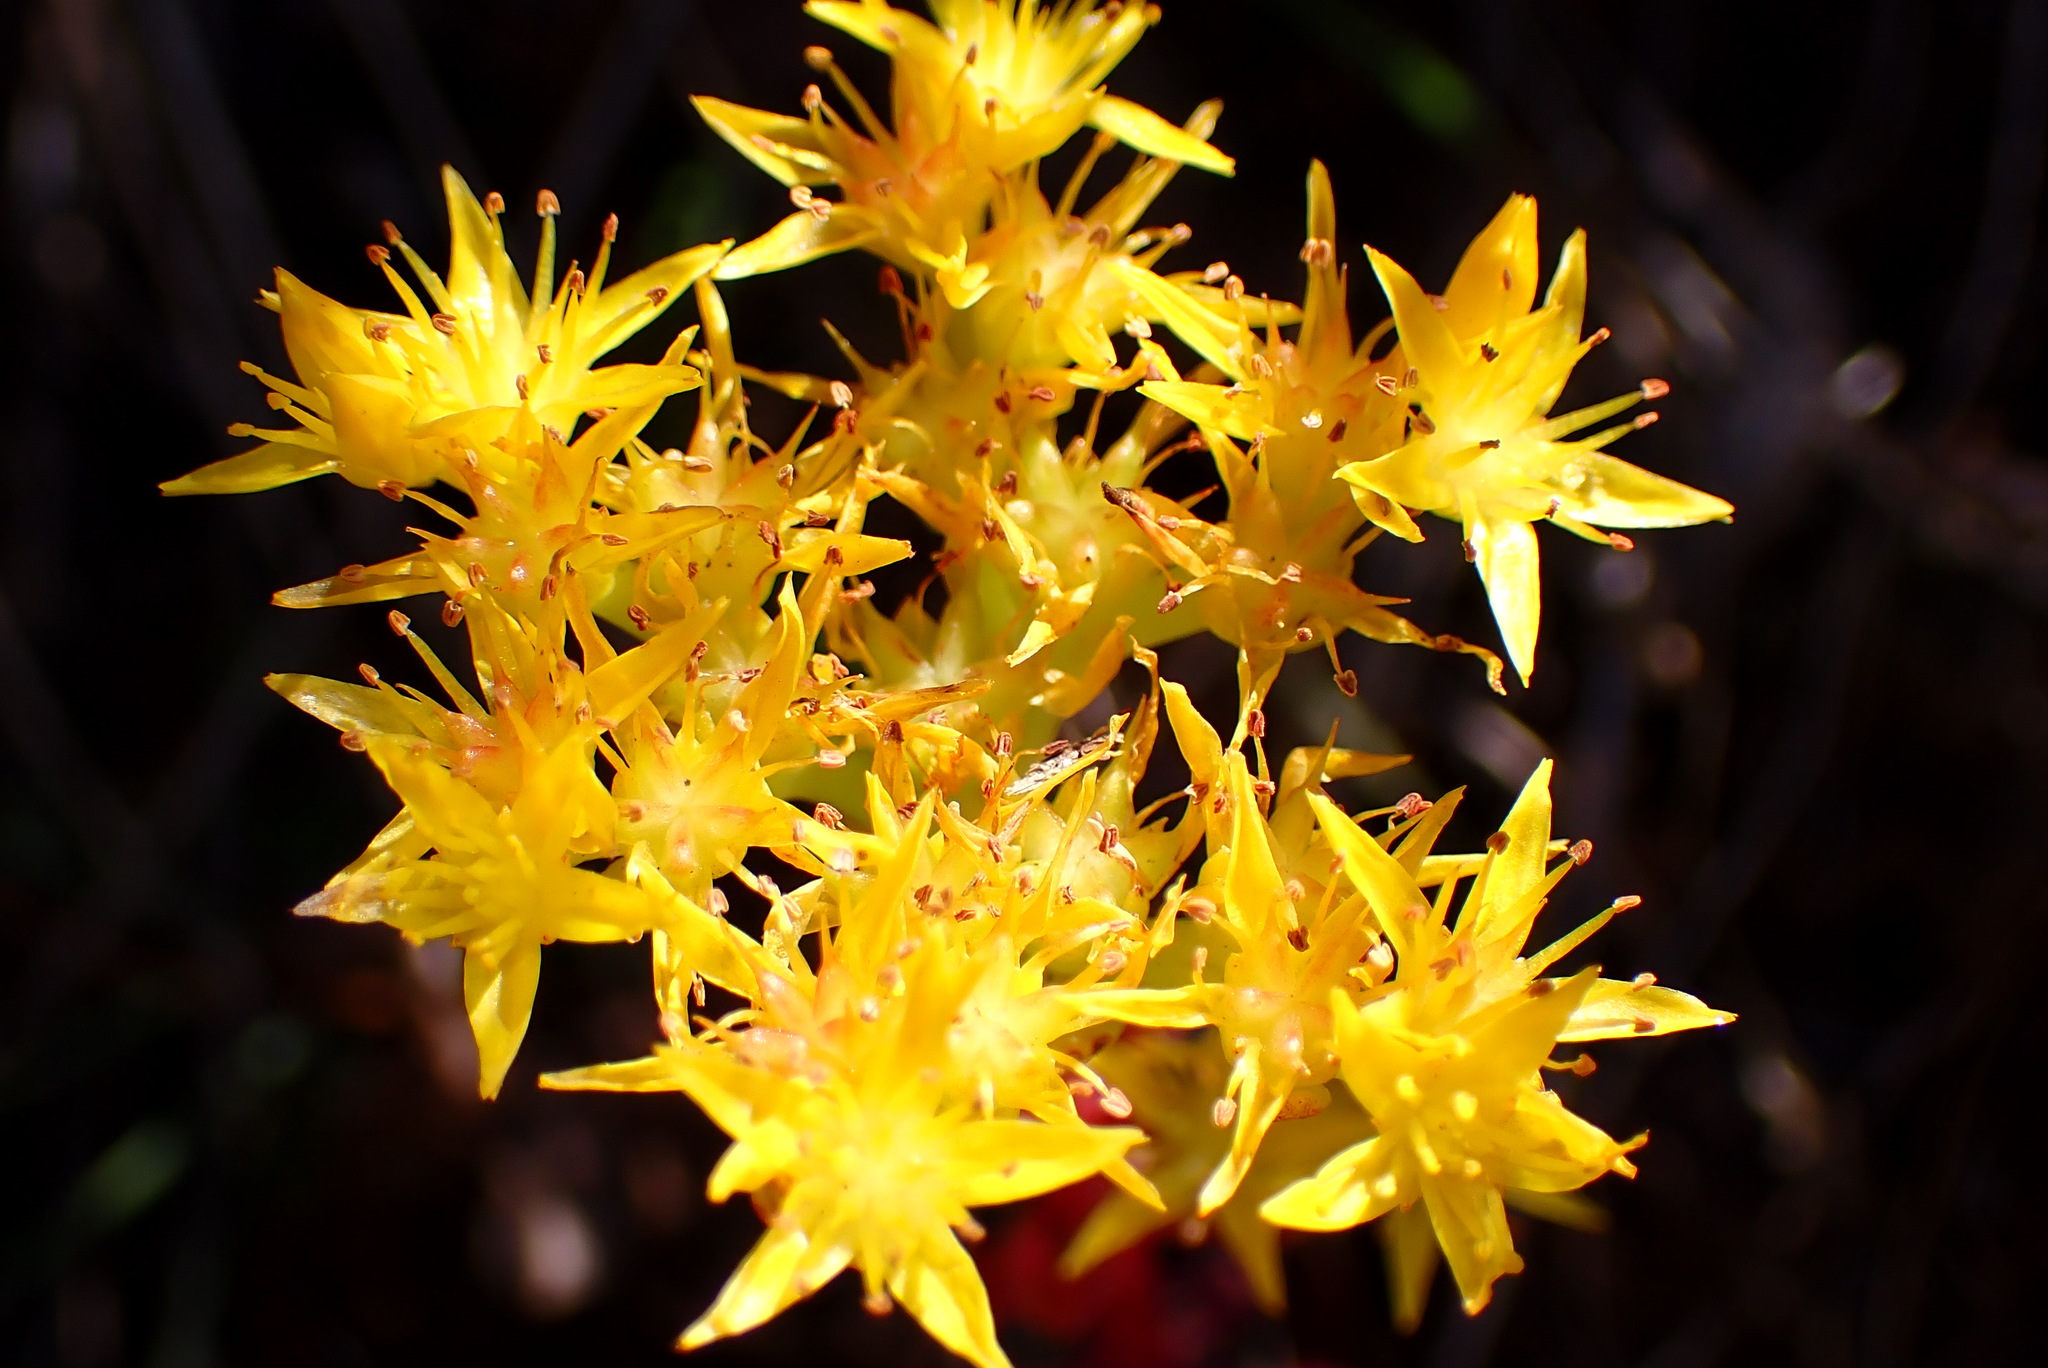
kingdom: Plantae
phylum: Tracheophyta
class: Magnoliopsida
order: Saxifragales
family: Crassulaceae
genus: Sedum
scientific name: Sedum spathulifolium
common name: Colorado stonecrop
